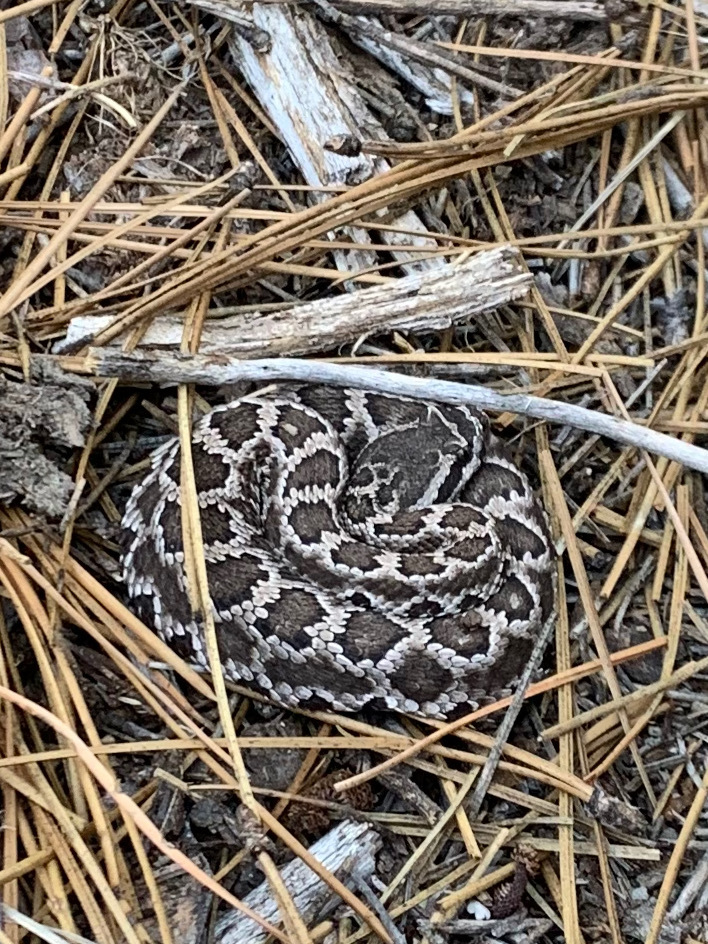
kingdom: Animalia
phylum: Chordata
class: Squamata
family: Viperidae
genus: Crotalus
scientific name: Crotalus oreganus
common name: Abyssus
